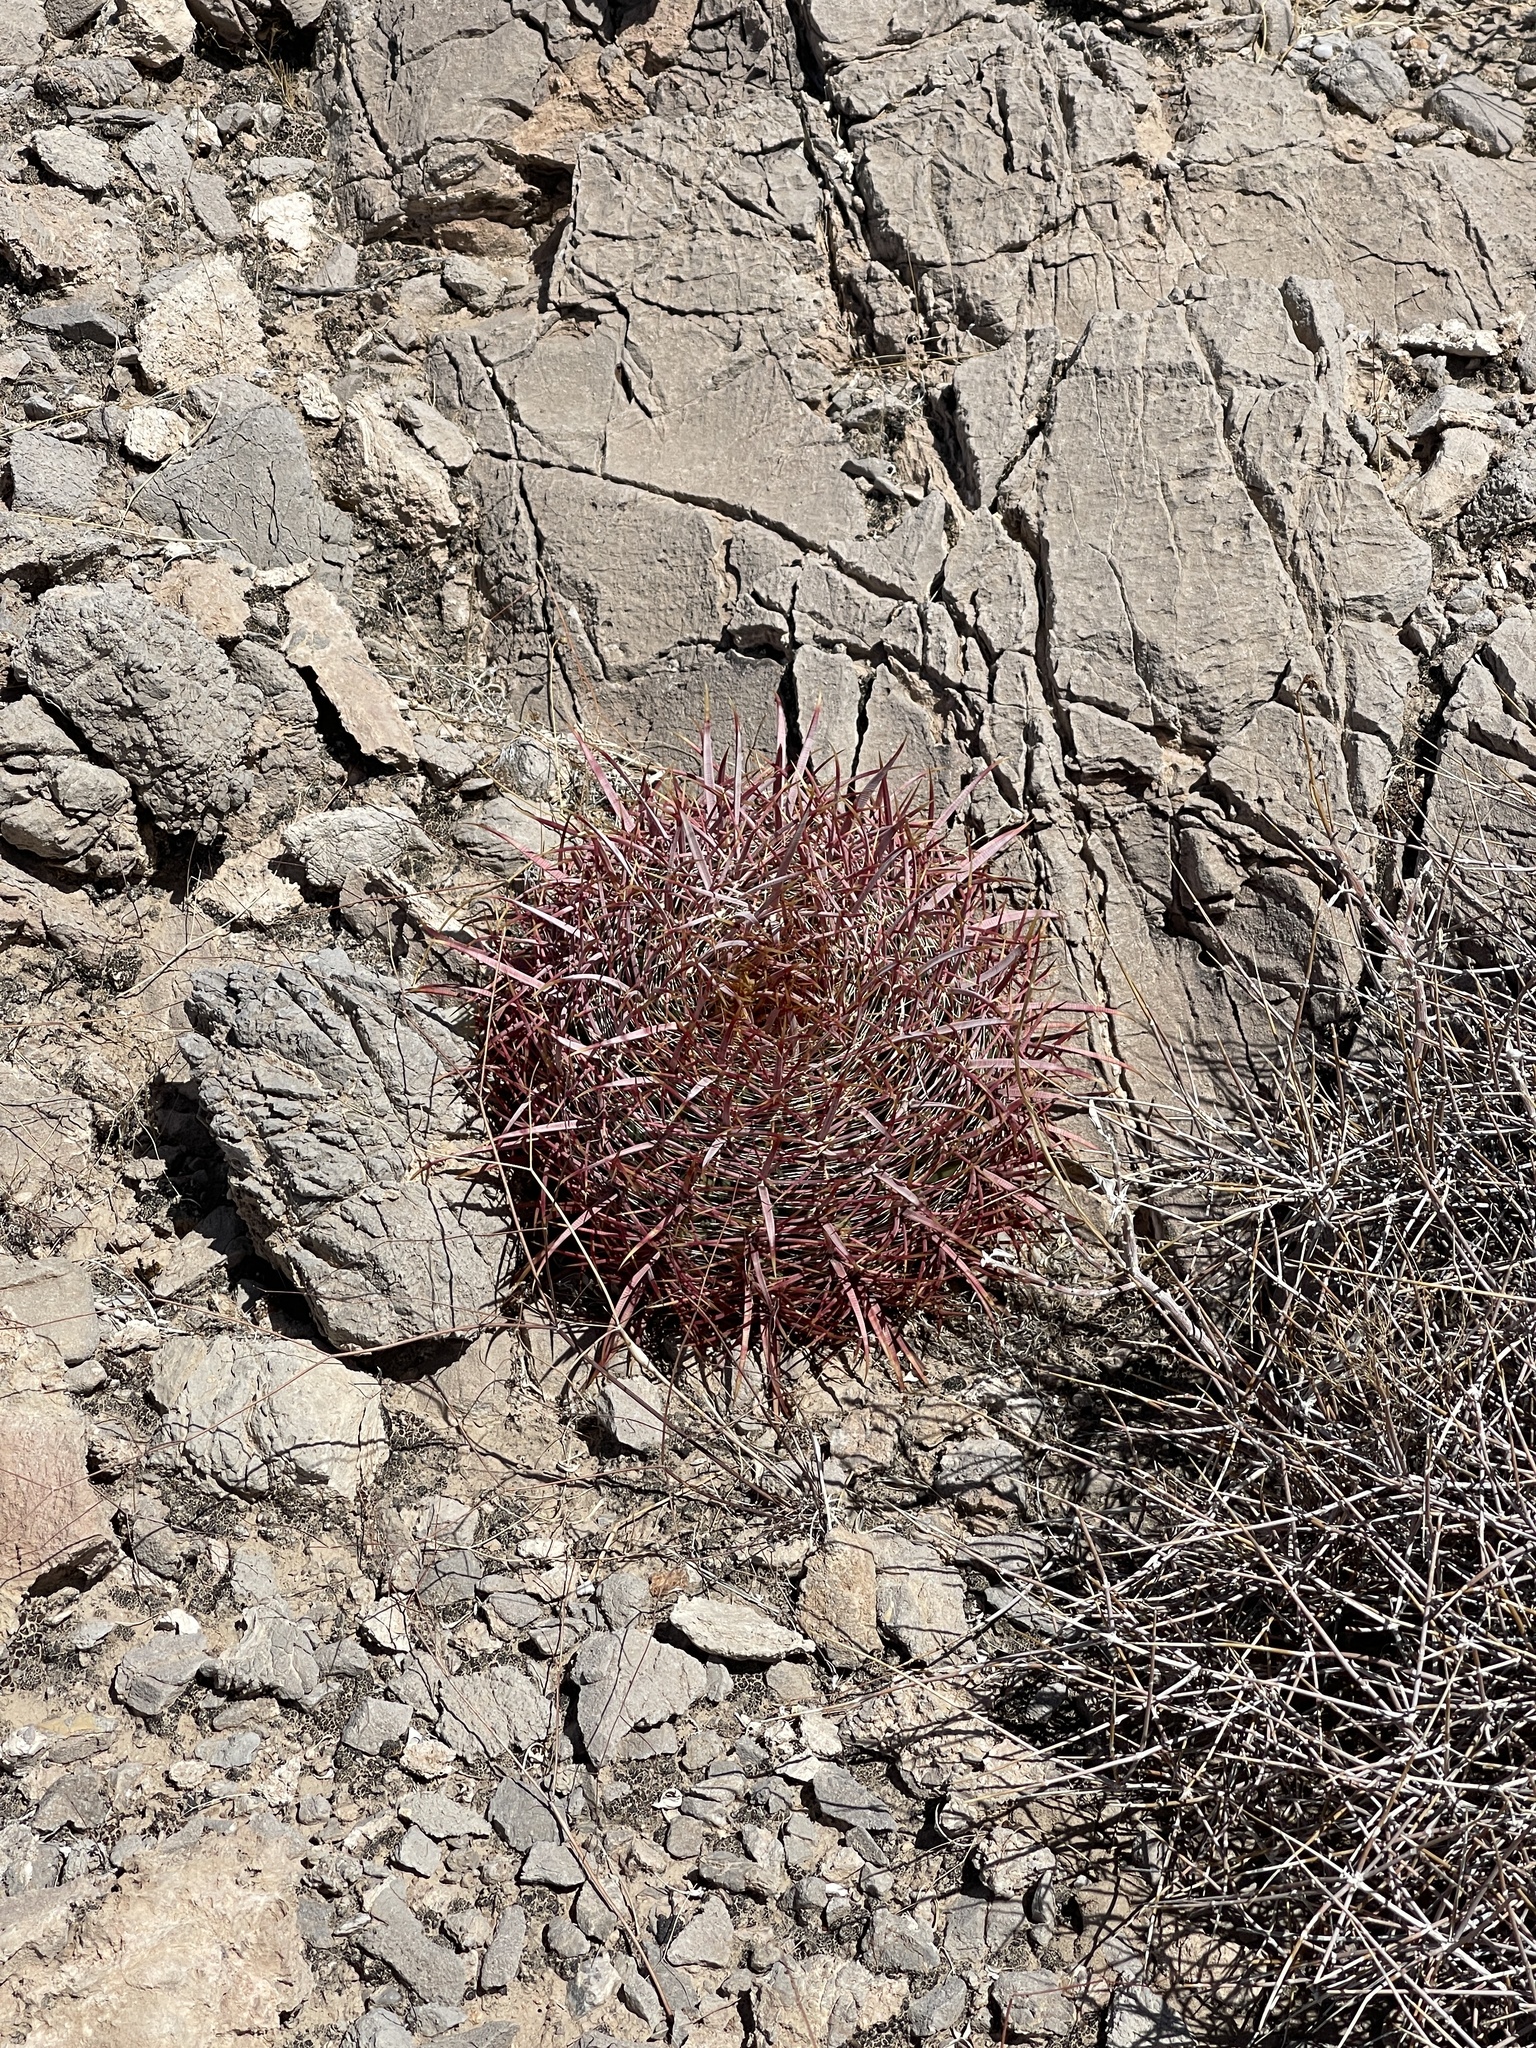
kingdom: Plantae
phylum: Tracheophyta
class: Magnoliopsida
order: Caryophyllales
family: Cactaceae
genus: Ferocactus
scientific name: Ferocactus cylindraceus
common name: California barrel cactus
